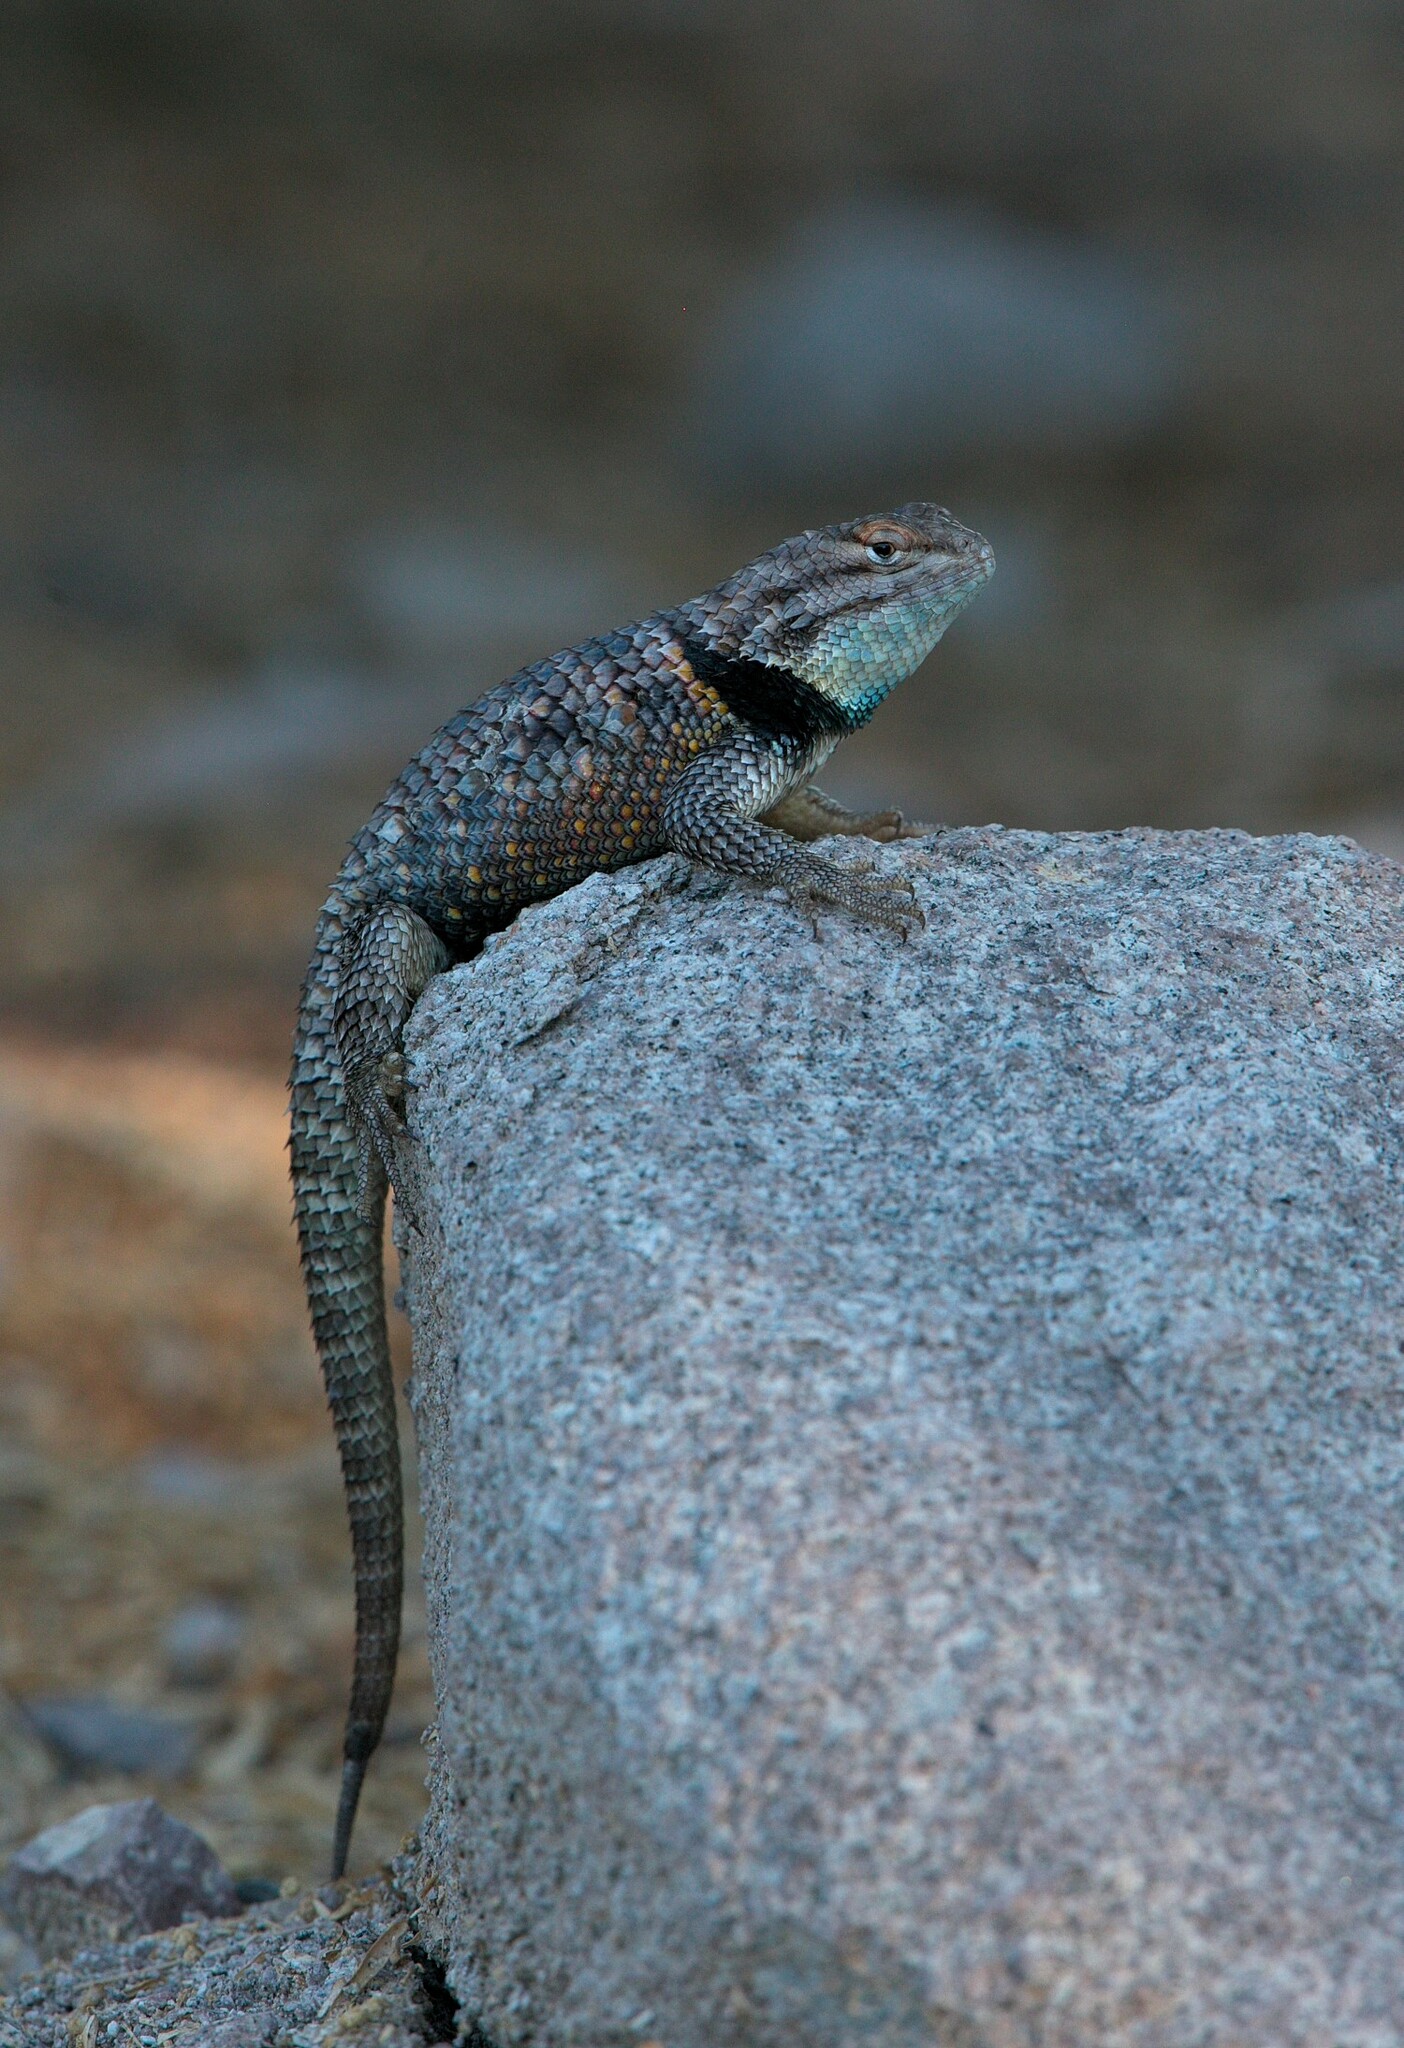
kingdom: Animalia
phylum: Chordata
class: Squamata
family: Phrynosomatidae
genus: Sceloporus
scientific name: Sceloporus uniformis
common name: Yellow-backed spiny lizard
